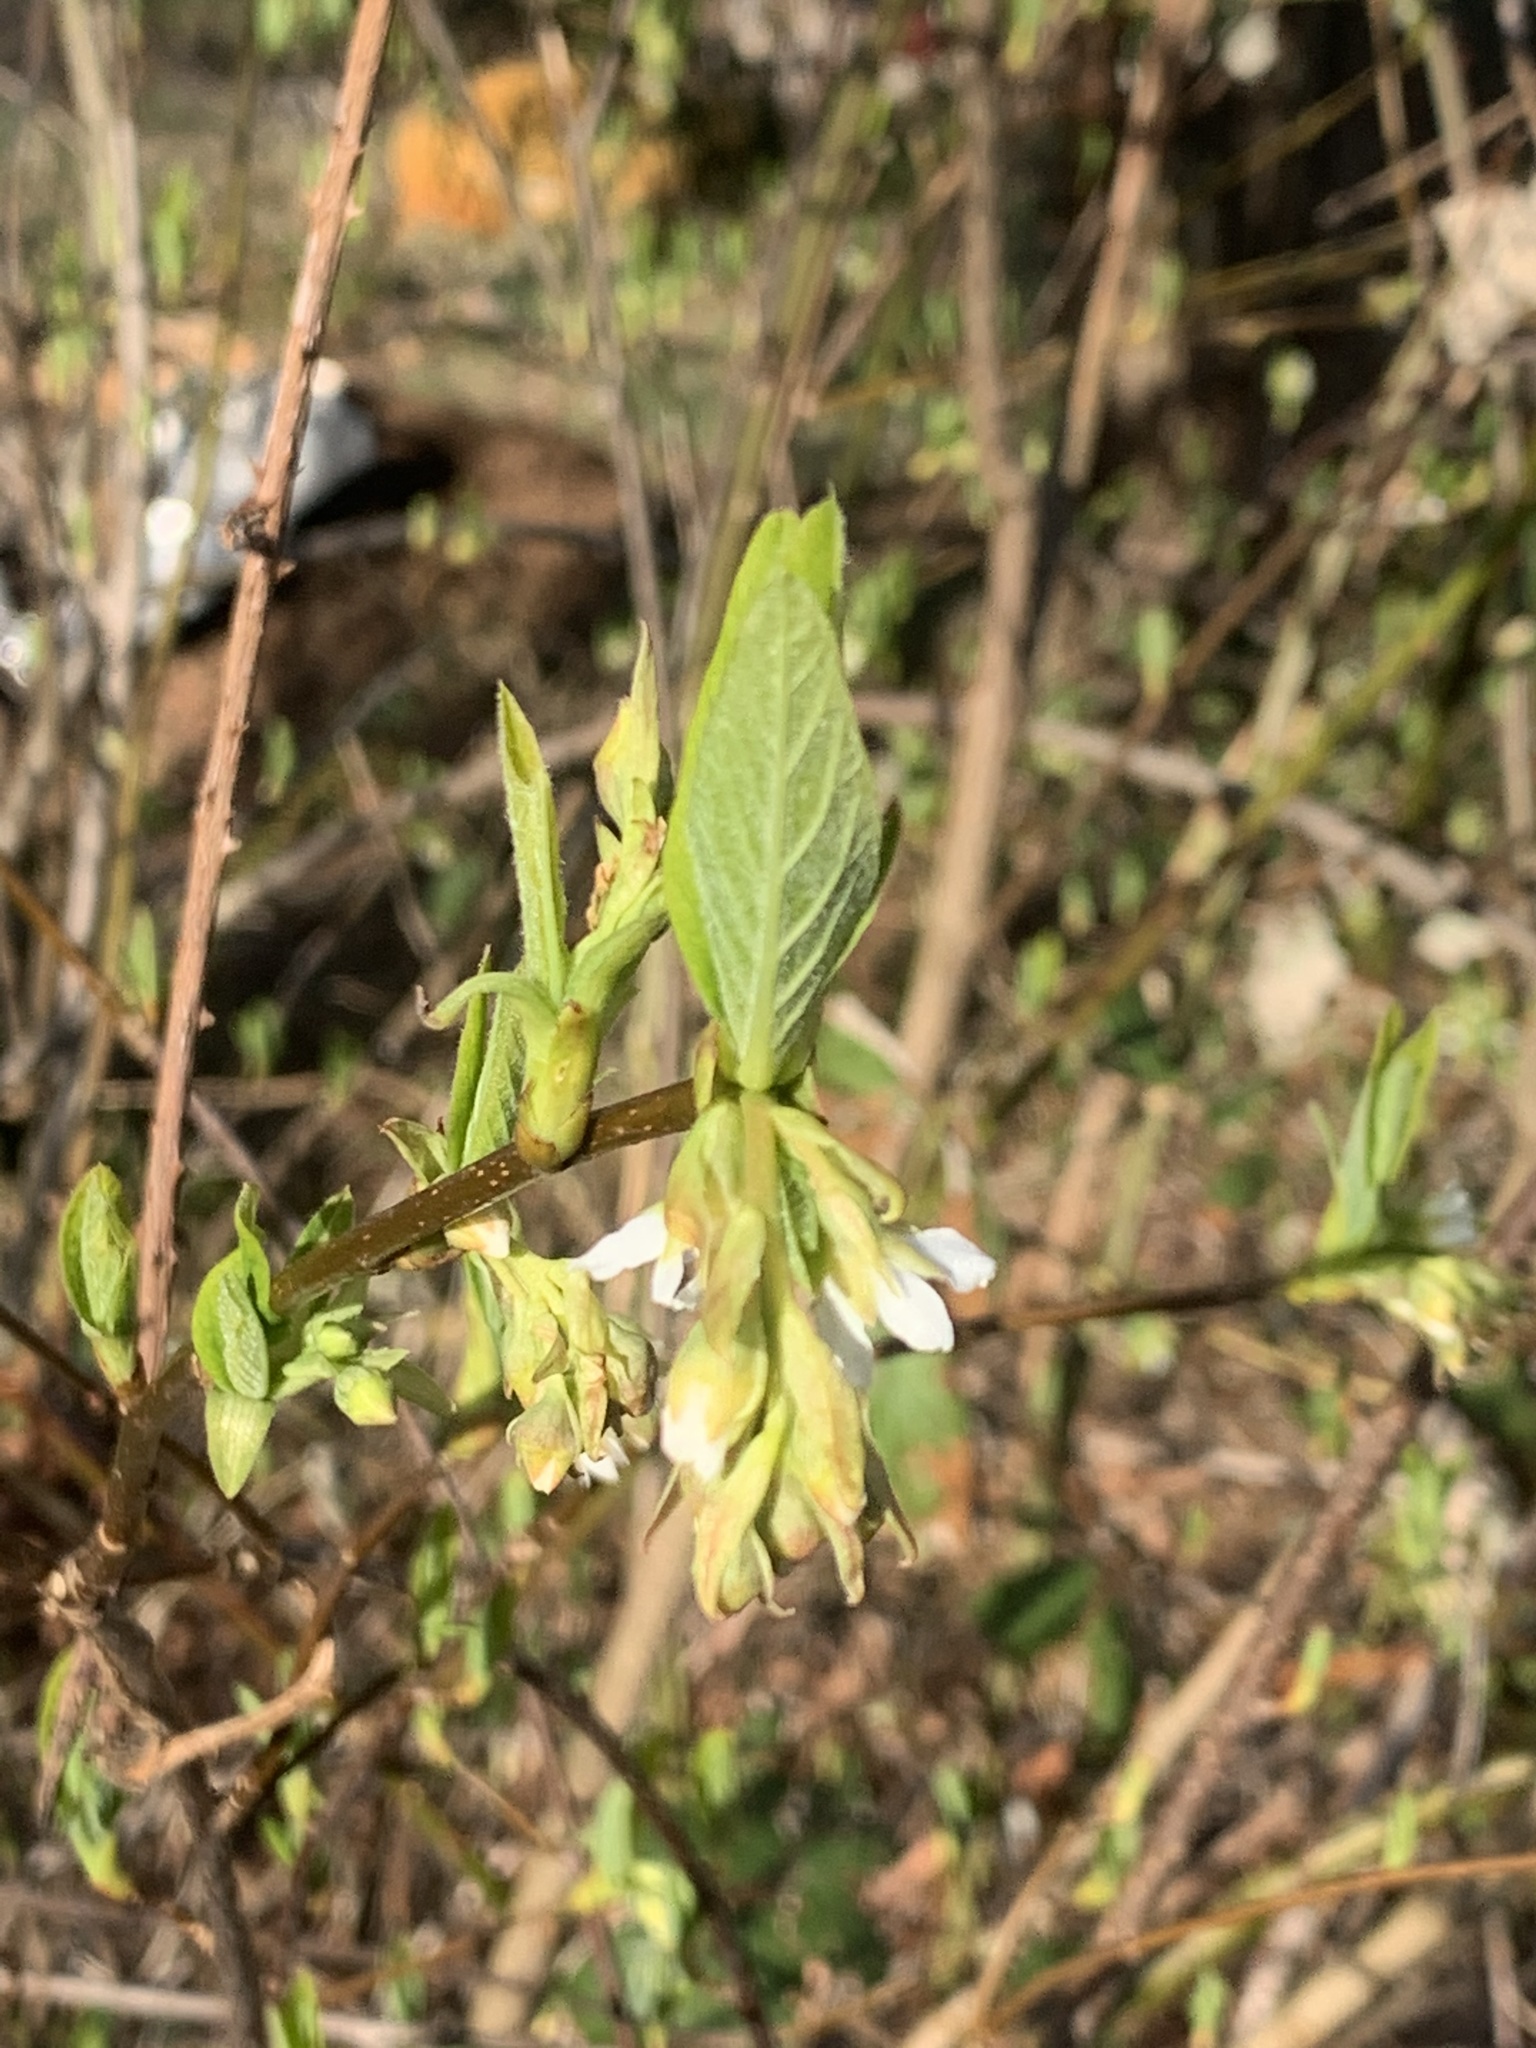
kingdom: Plantae
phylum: Tracheophyta
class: Magnoliopsida
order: Rosales
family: Rosaceae
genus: Oemleria
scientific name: Oemleria cerasiformis
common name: Osoberry
